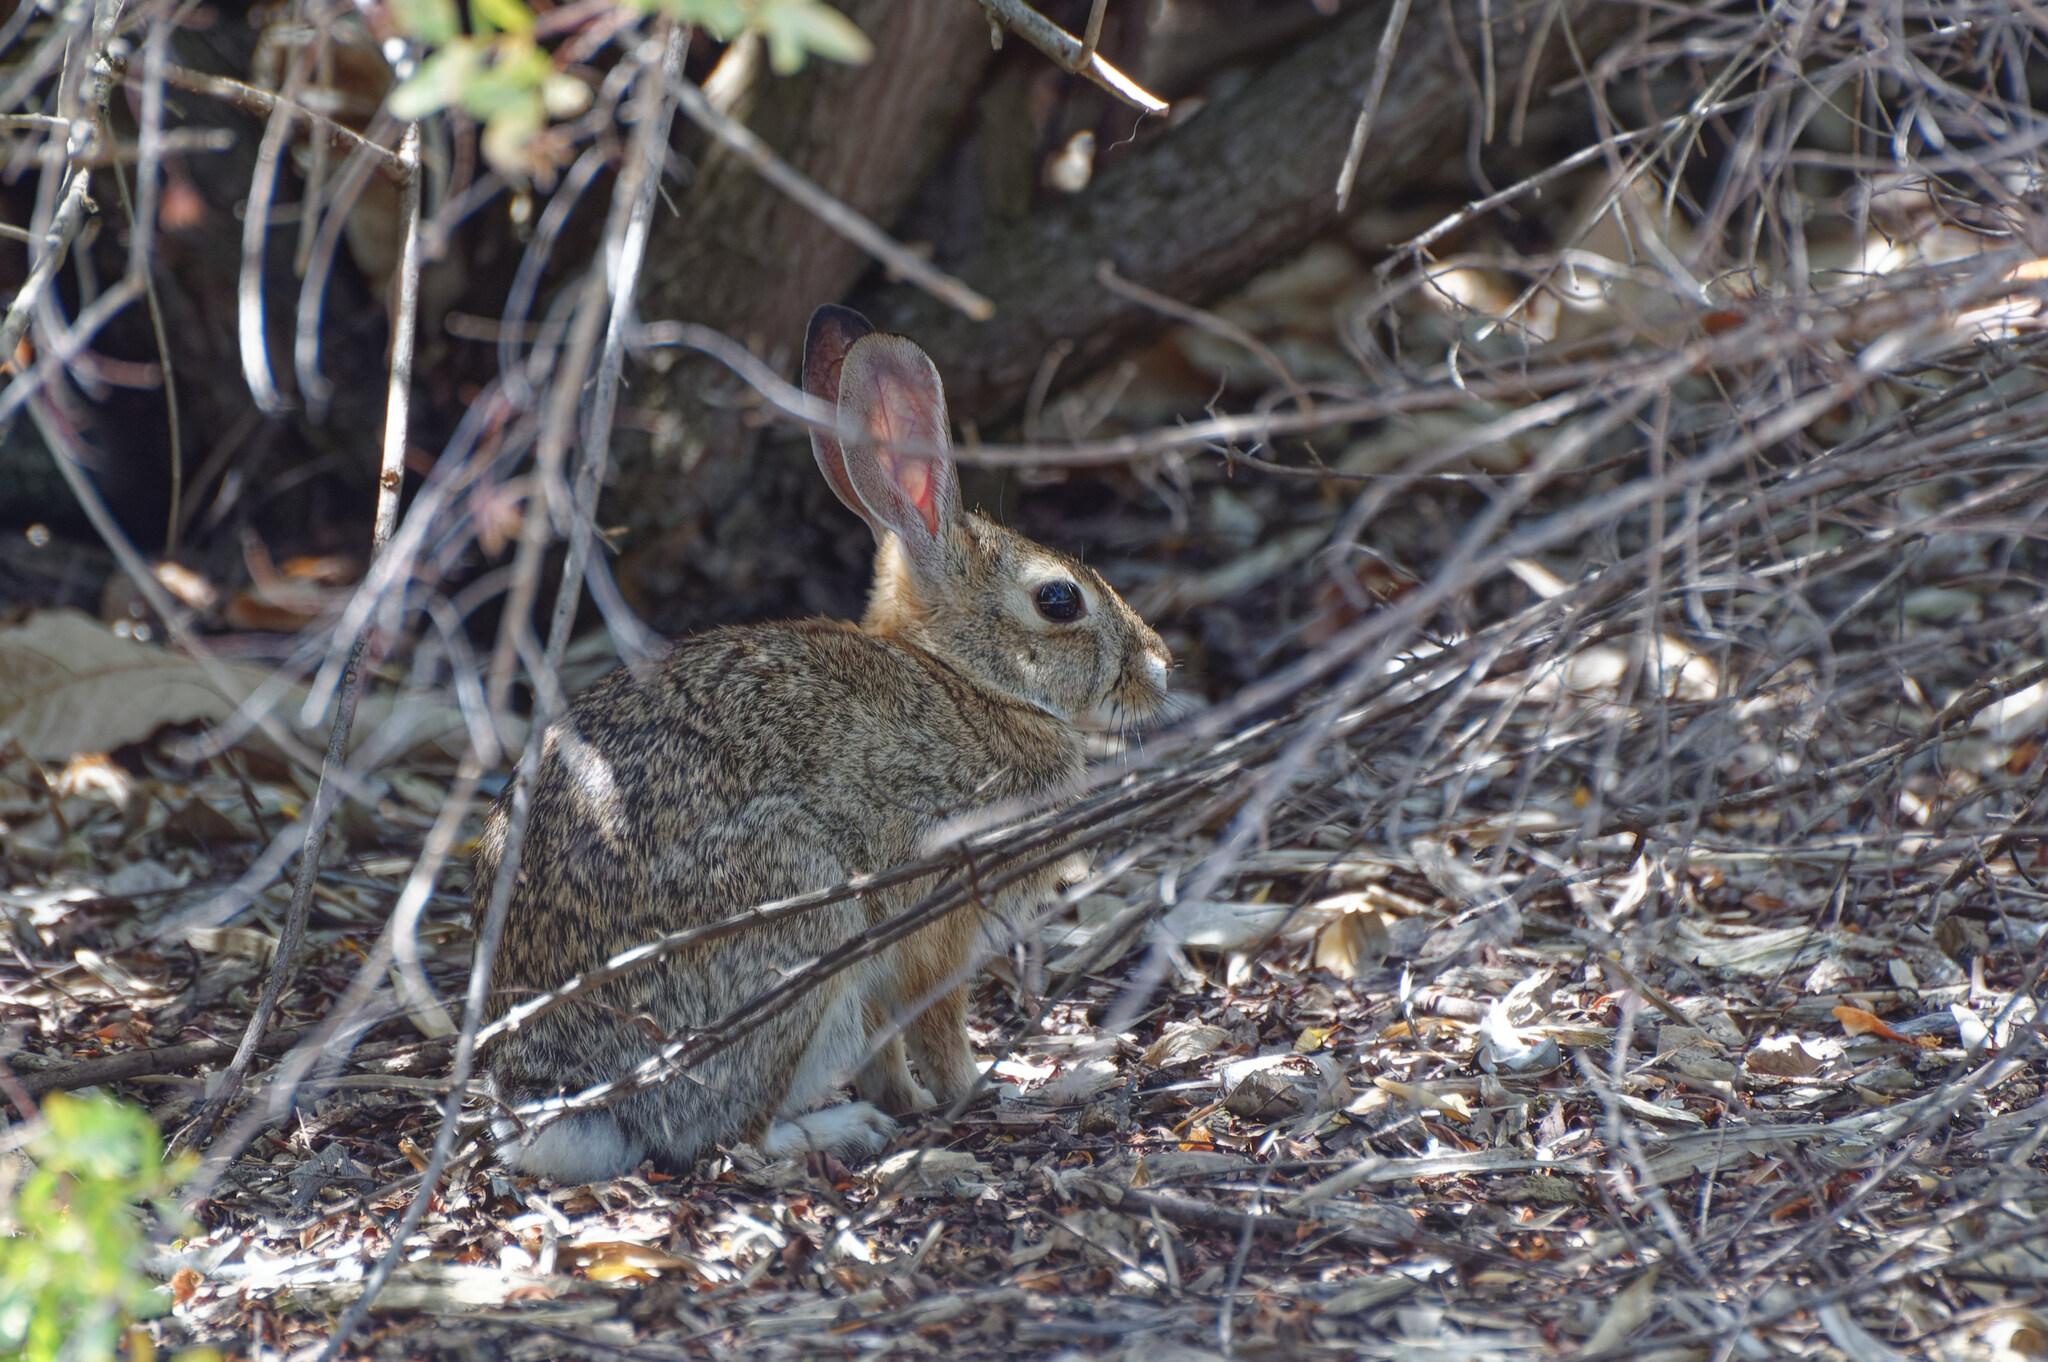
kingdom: Animalia
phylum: Chordata
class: Mammalia
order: Lagomorpha
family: Leporidae
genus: Sylvilagus
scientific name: Sylvilagus audubonii
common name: Desert cottontail
